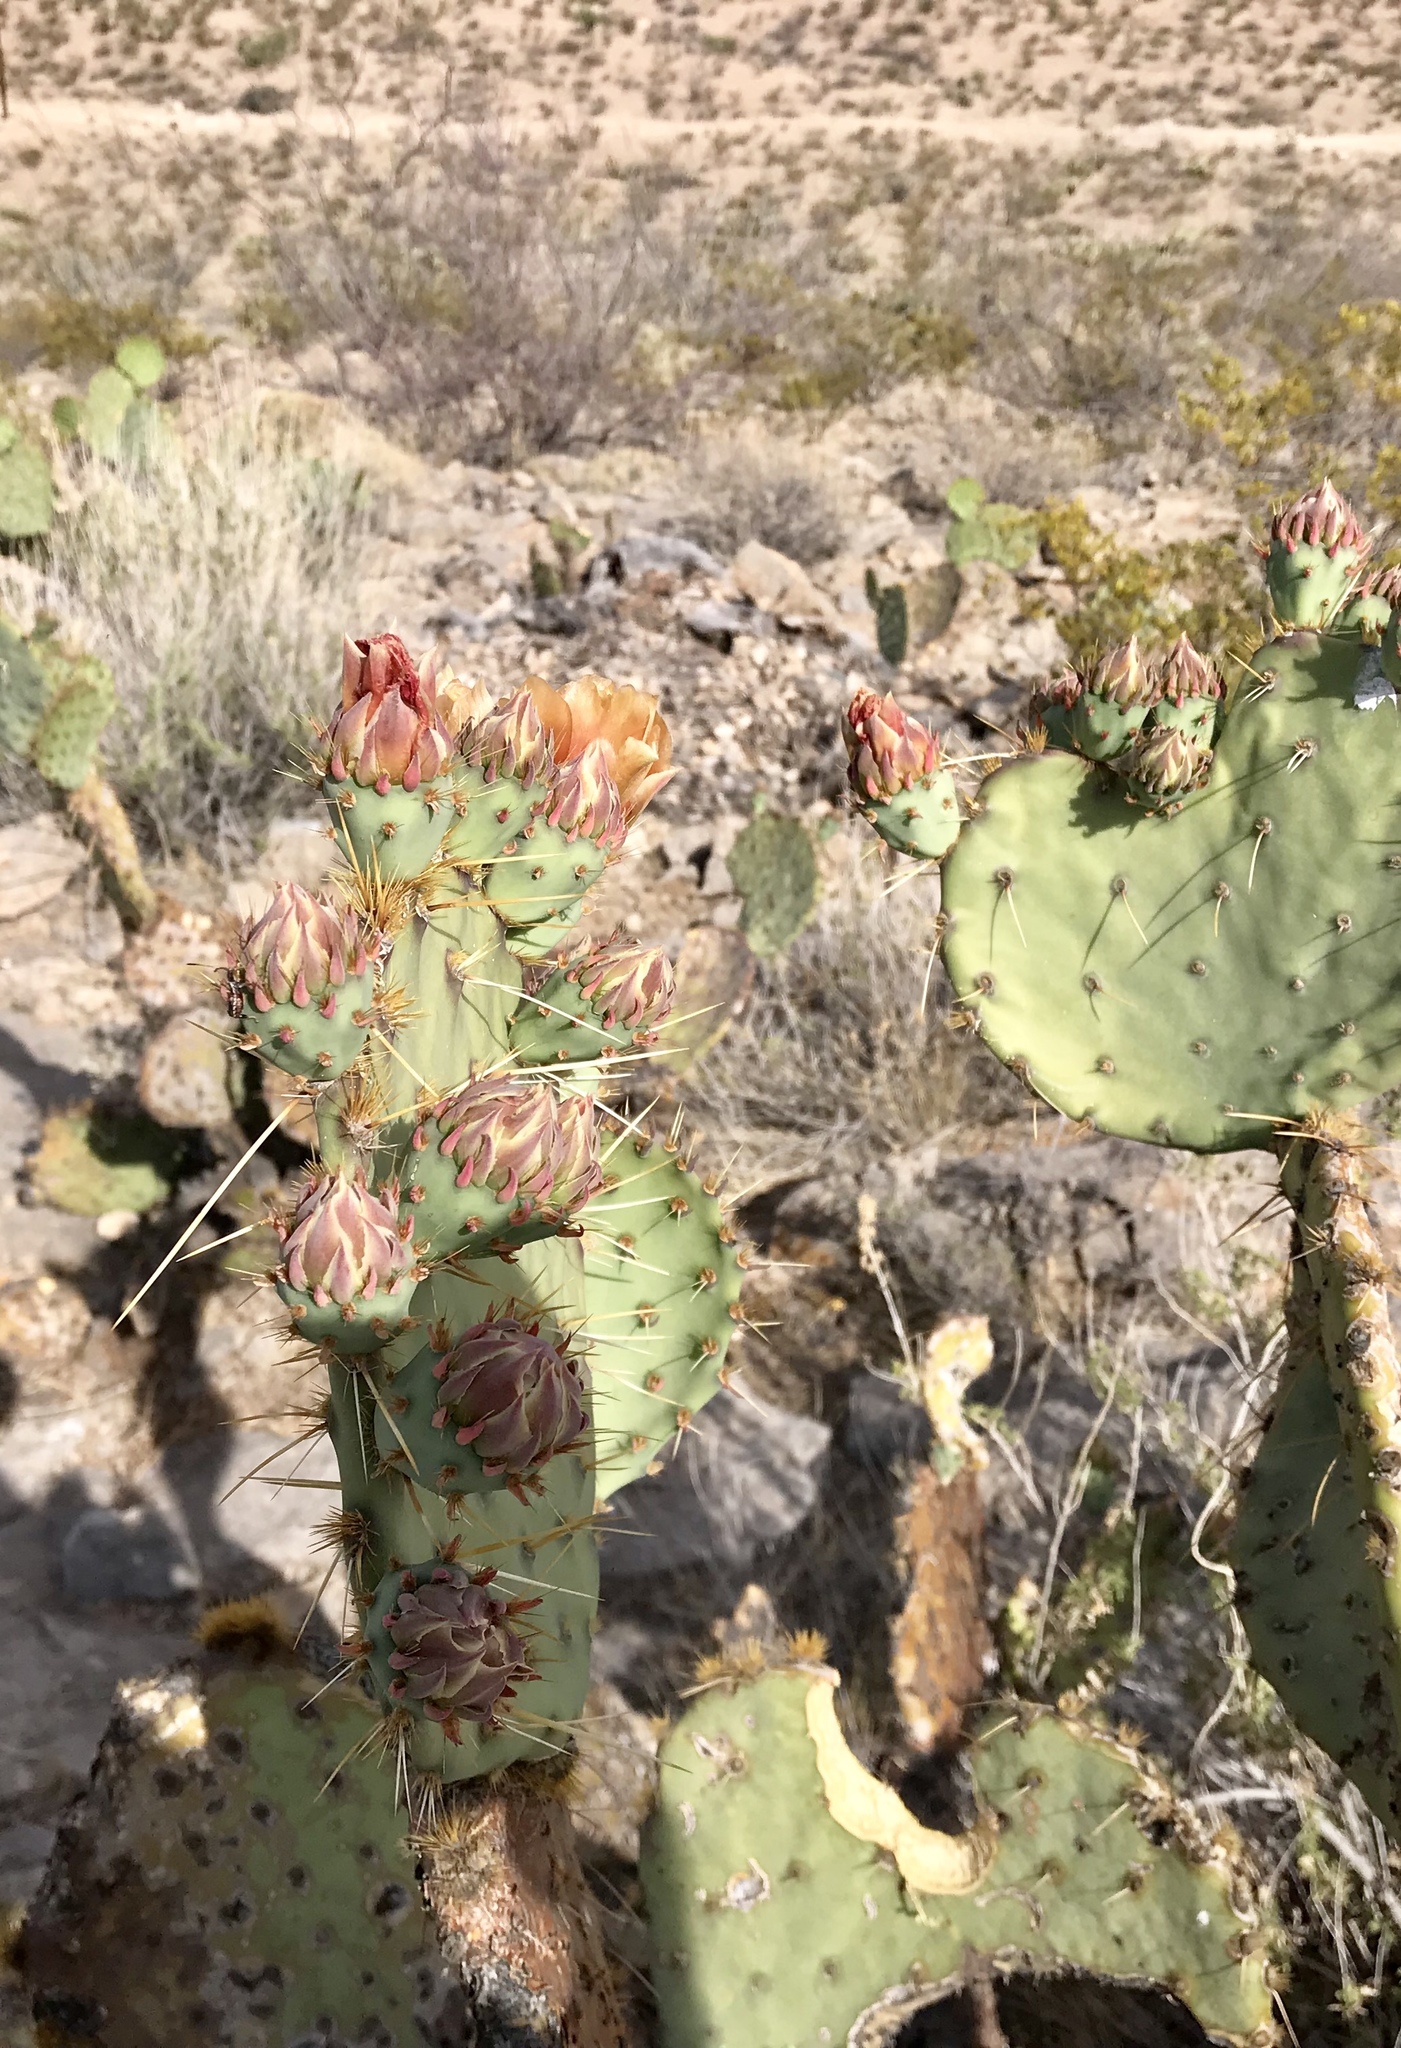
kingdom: Plantae
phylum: Tracheophyta
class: Magnoliopsida
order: Caryophyllales
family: Cactaceae
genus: Opuntia
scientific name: Opuntia orbiculata
